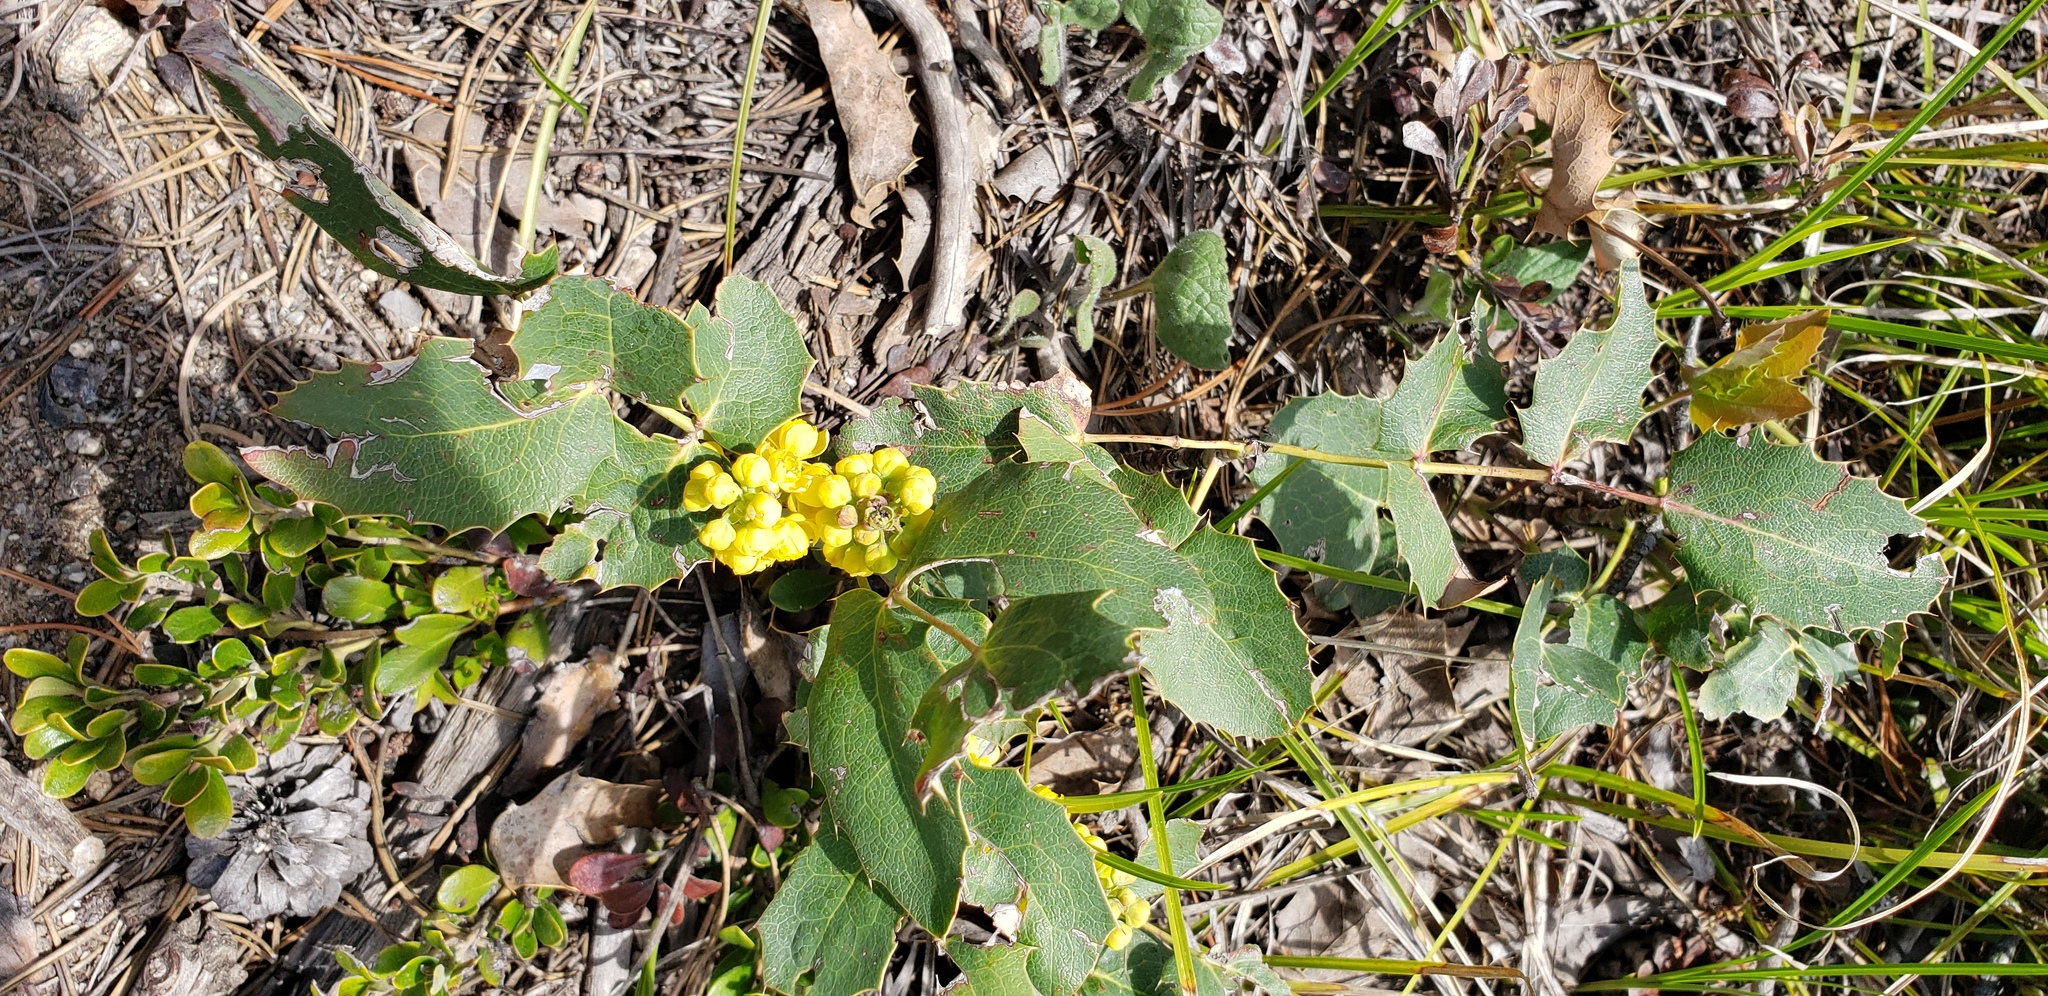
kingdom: Plantae
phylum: Tracheophyta
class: Magnoliopsida
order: Ranunculales
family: Berberidaceae
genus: Mahonia
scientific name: Mahonia repens
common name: Creeping oregon-grape
